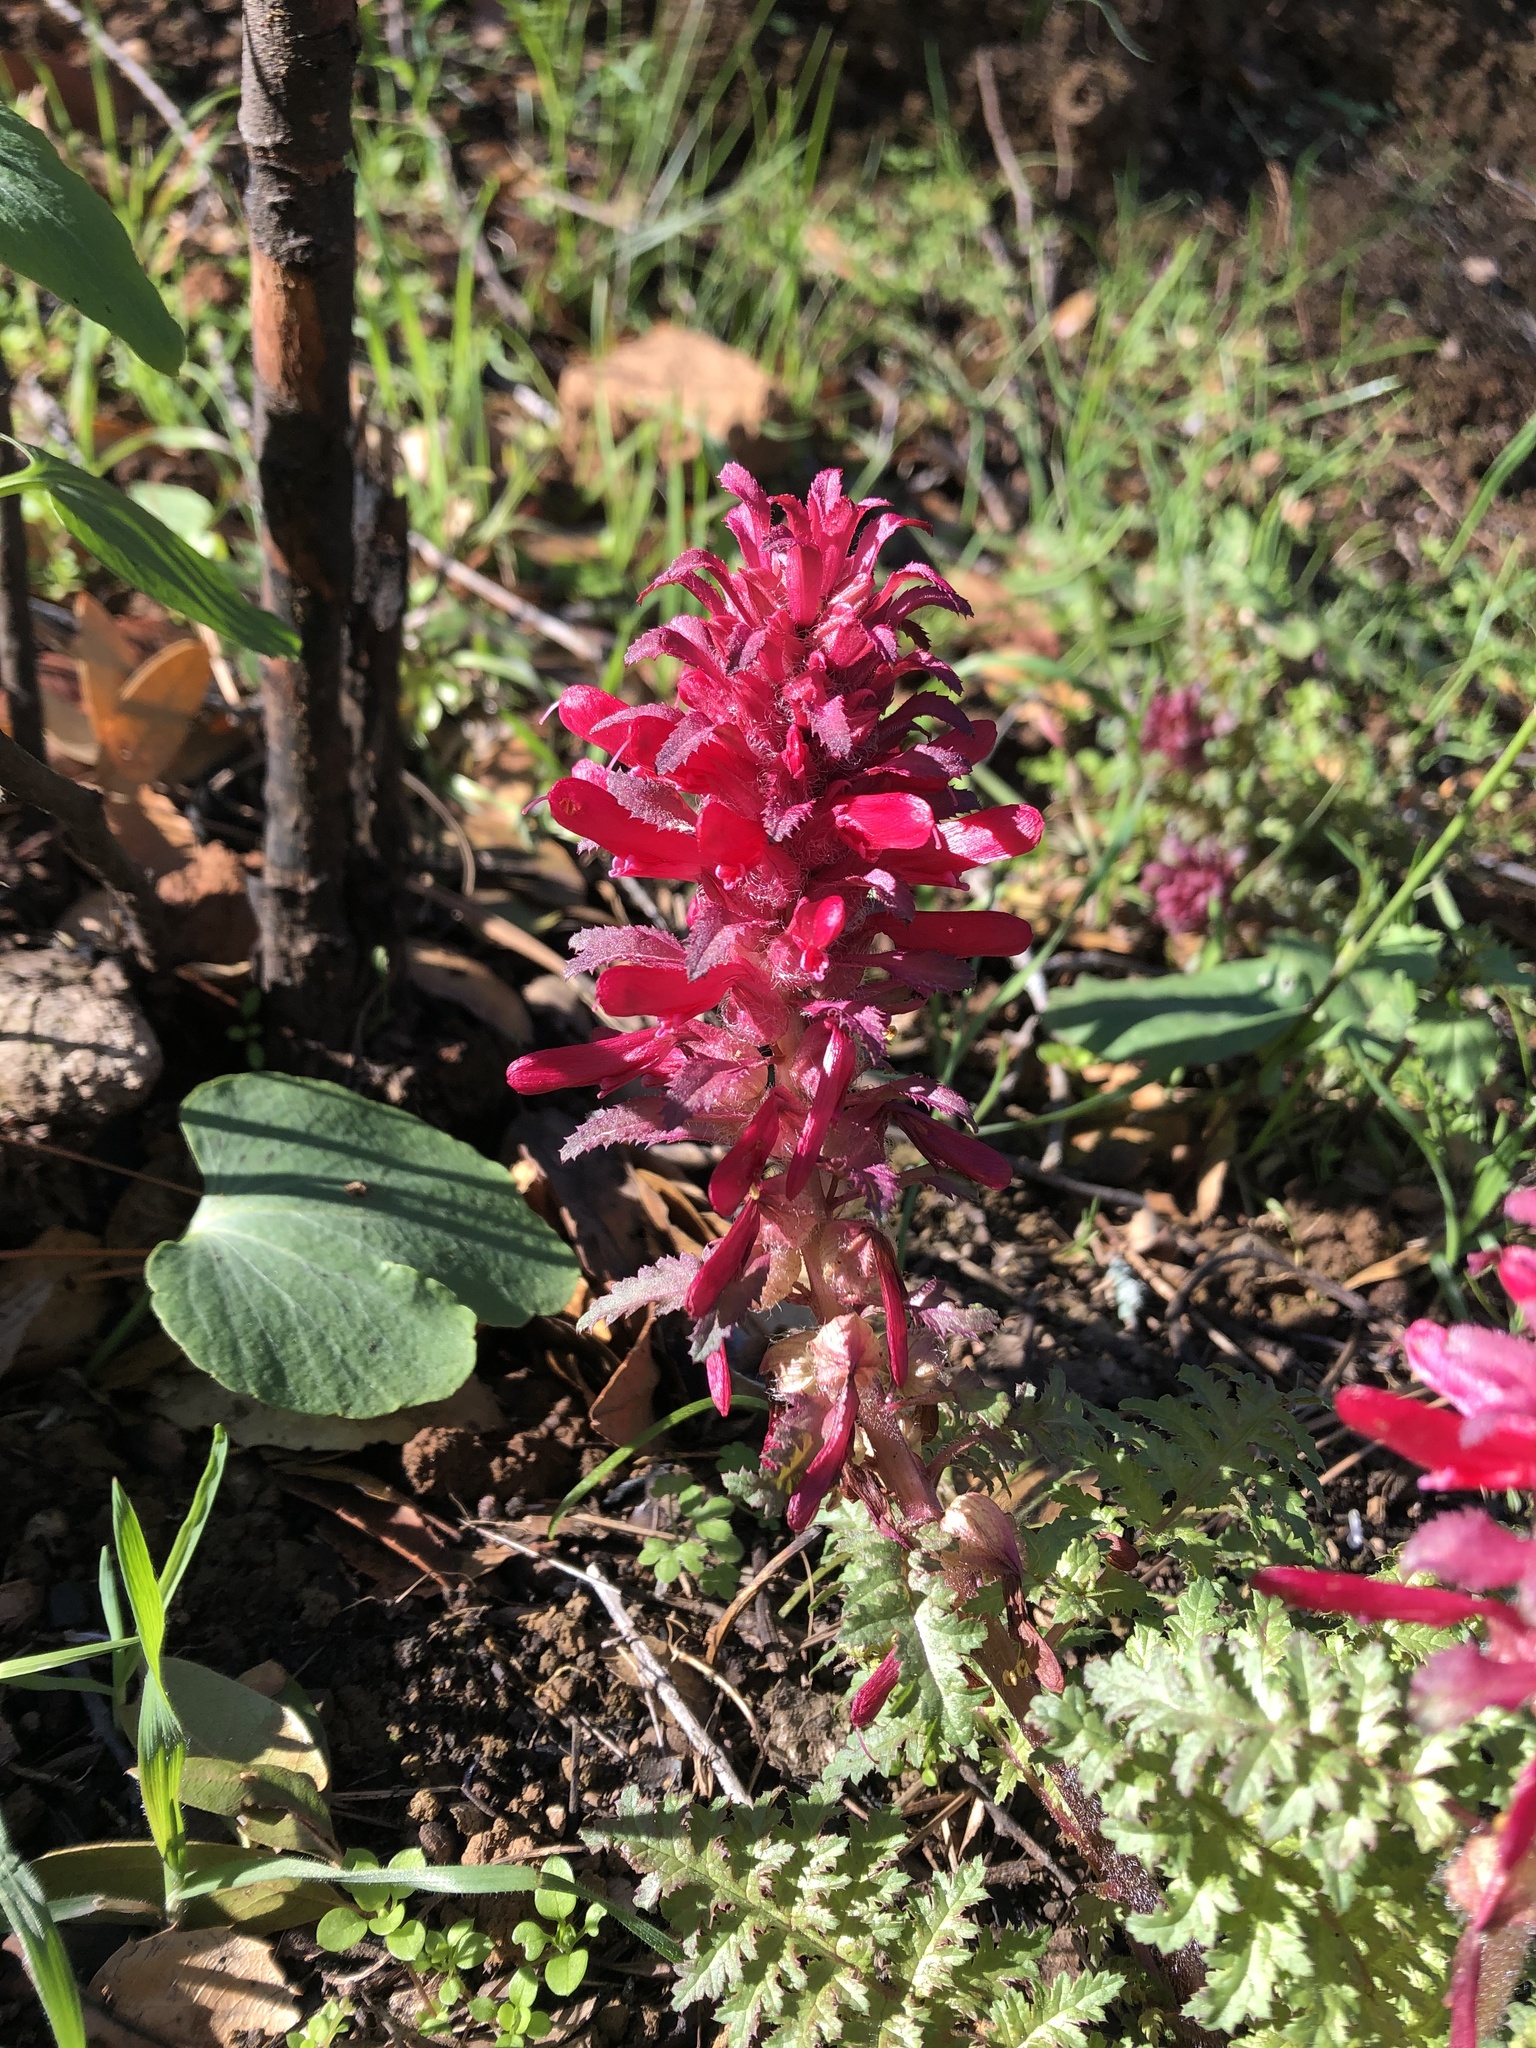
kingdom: Plantae
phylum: Tracheophyta
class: Magnoliopsida
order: Lamiales
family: Orobanchaceae
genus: Pedicularis
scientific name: Pedicularis densiflora
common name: Indian warrior
